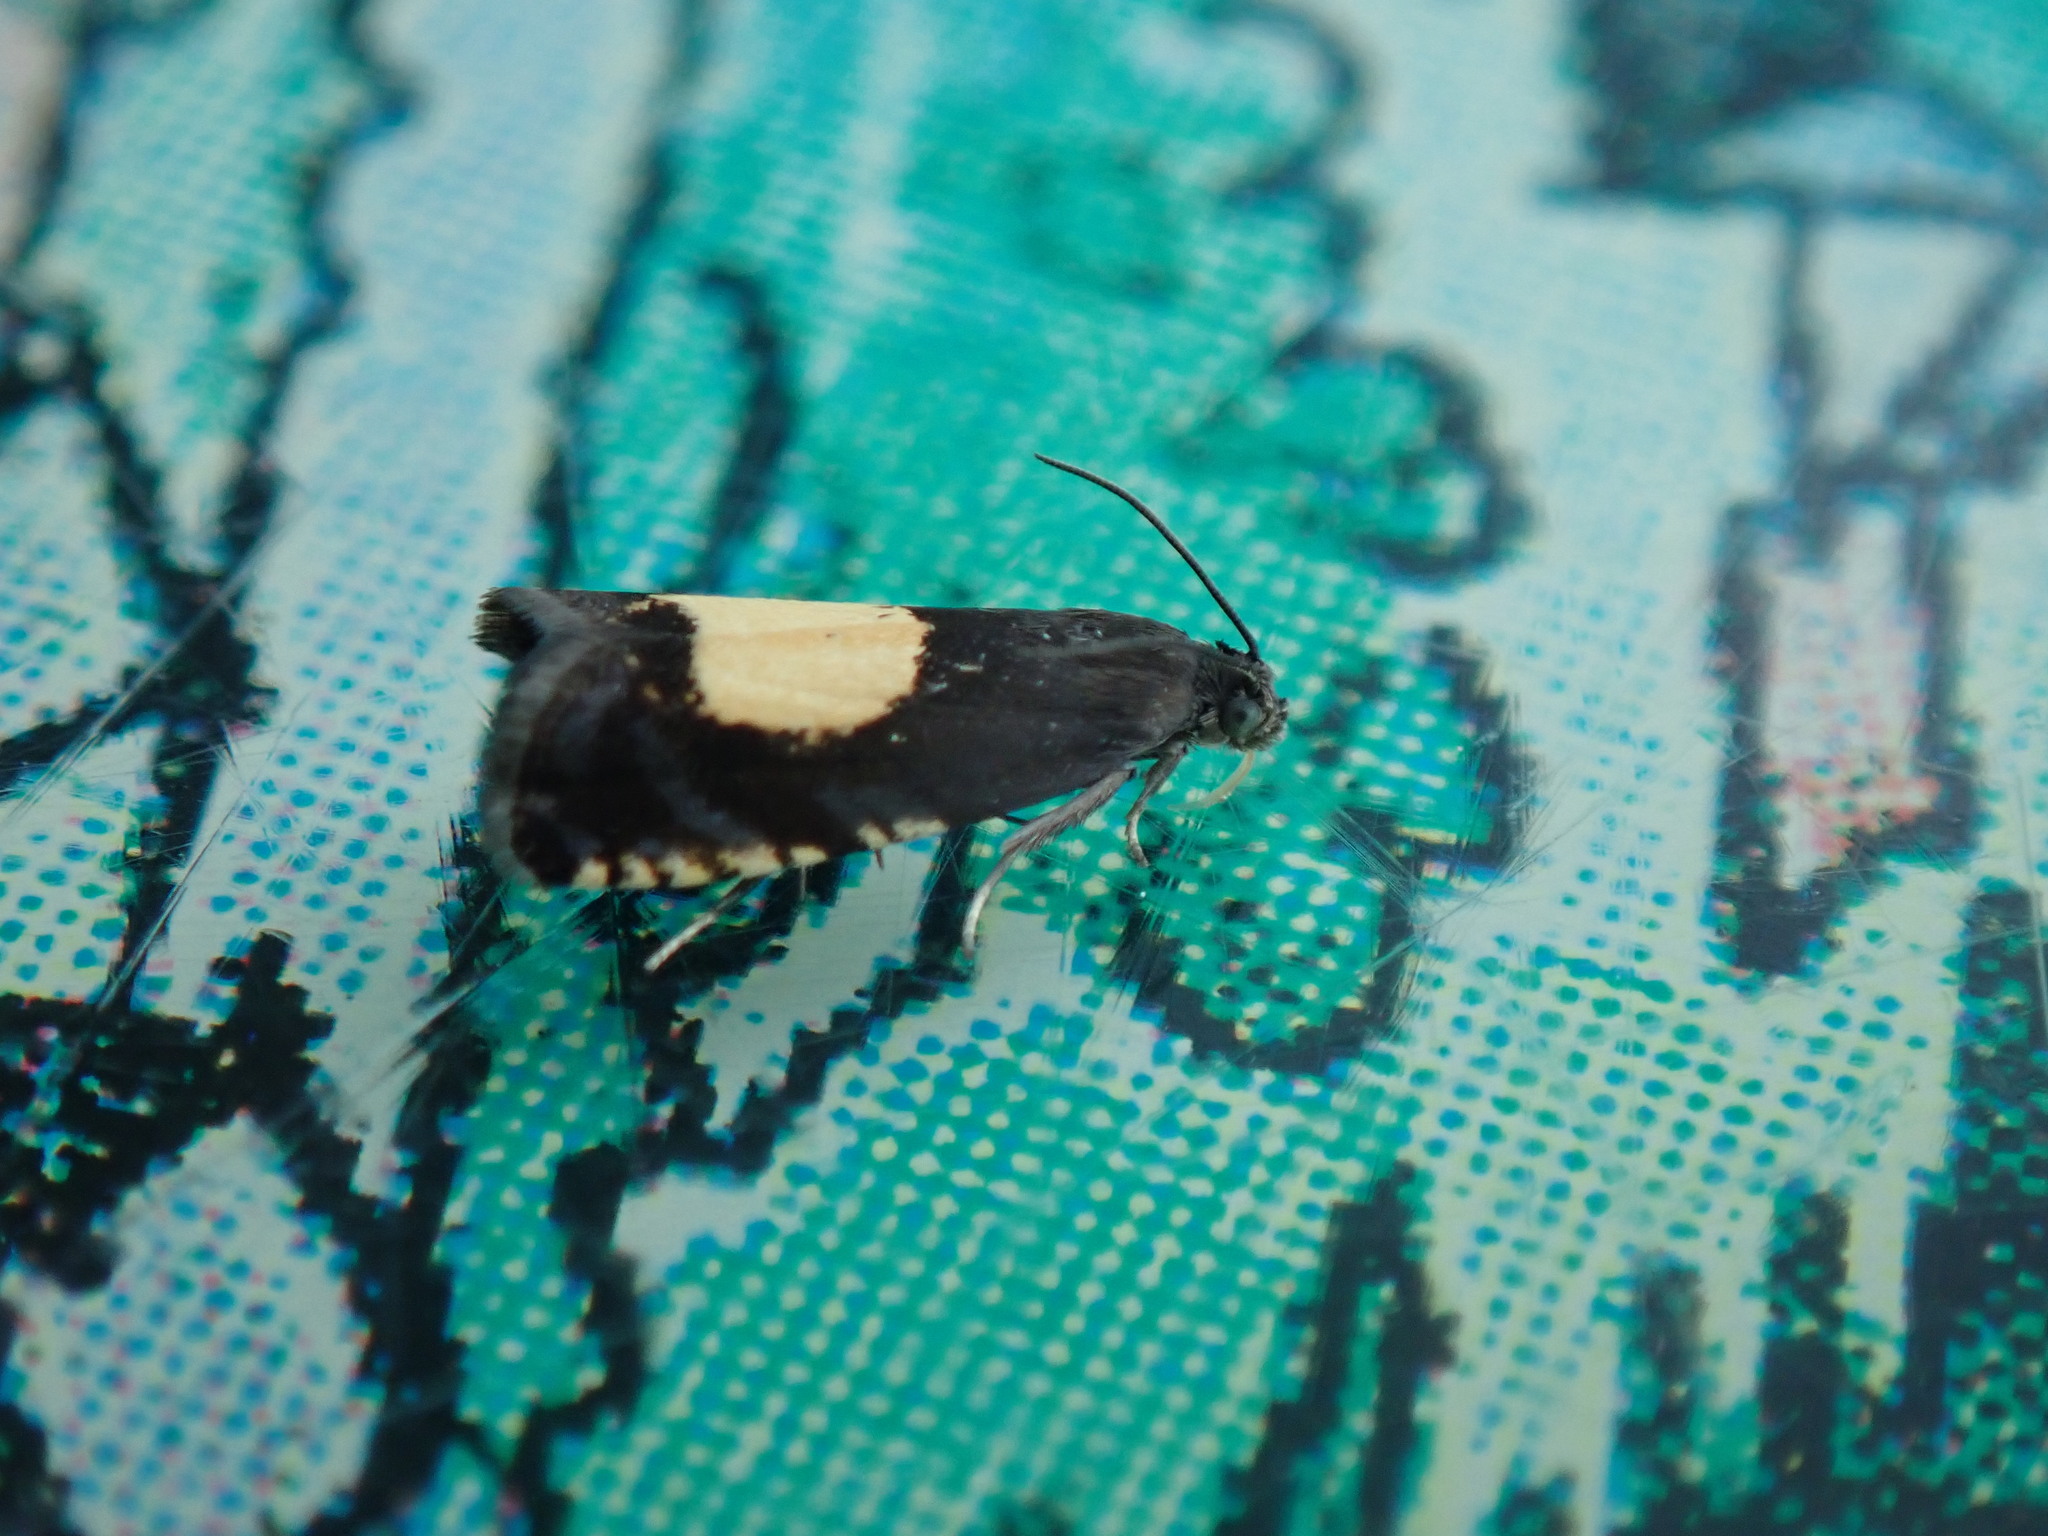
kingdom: Animalia
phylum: Arthropoda
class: Insecta
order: Lepidoptera
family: Tortricidae
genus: Pammene
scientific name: Pammene regiana
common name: Regal piercer
